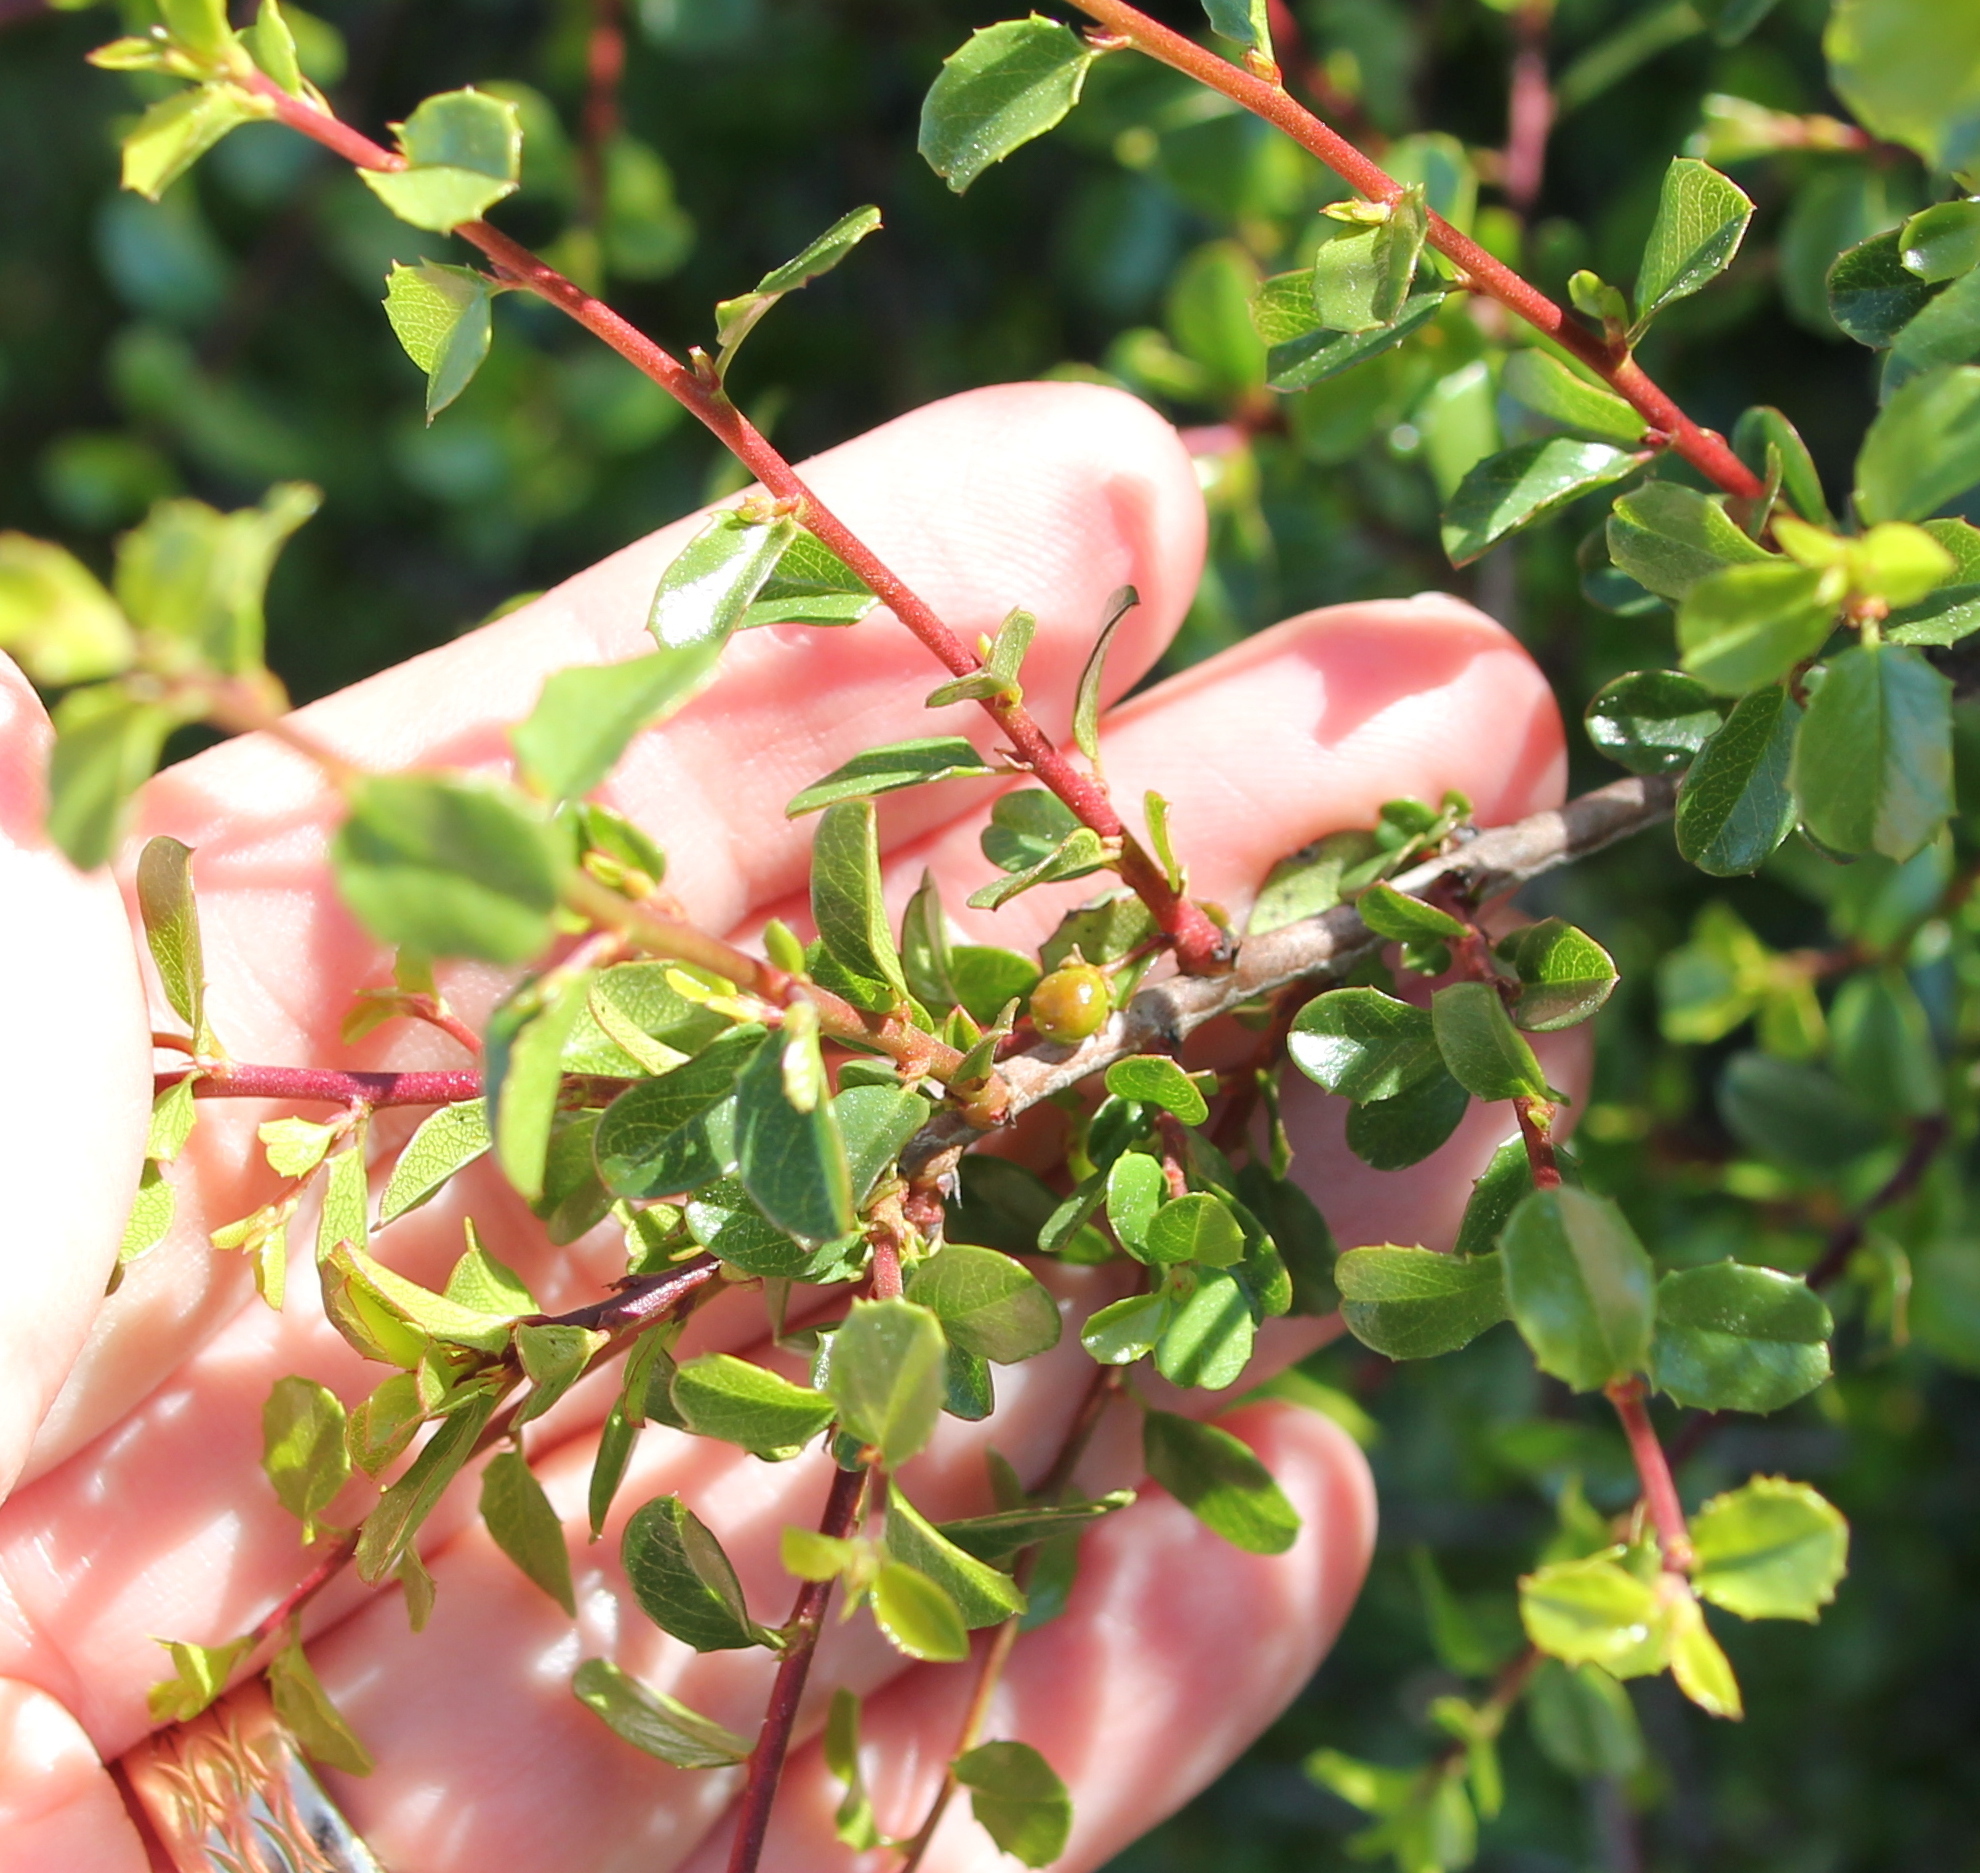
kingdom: Plantae
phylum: Tracheophyta
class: Magnoliopsida
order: Rosales
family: Rhamnaceae
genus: Endotropis
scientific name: Endotropis crocea
